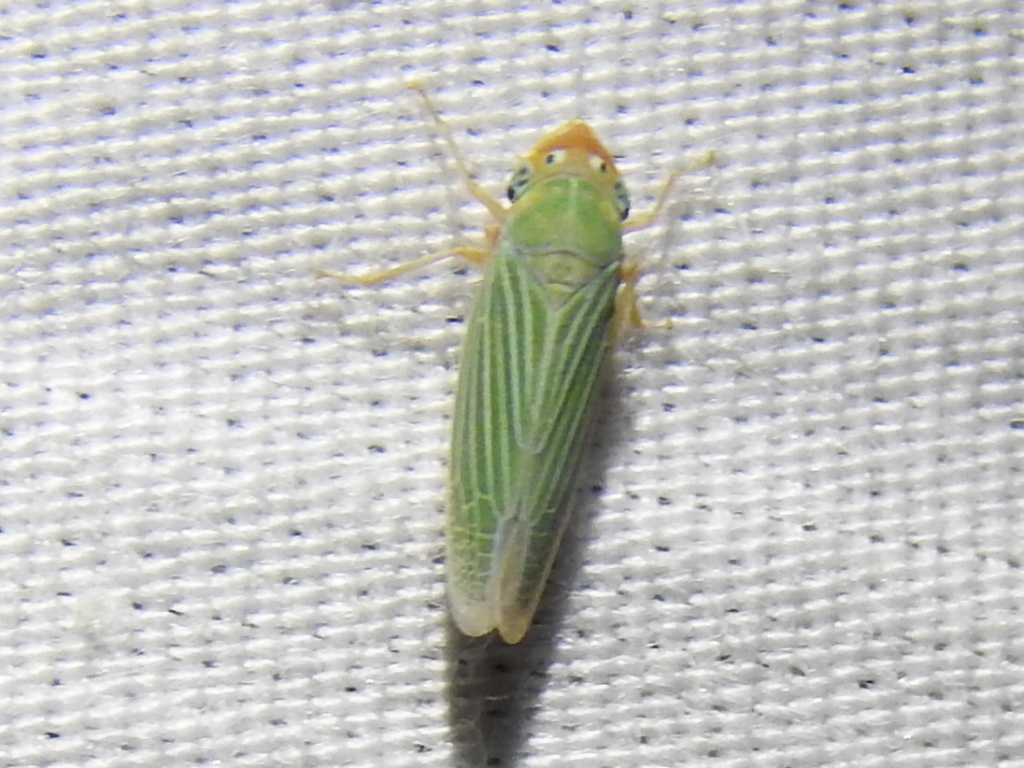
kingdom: Animalia
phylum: Arthropoda
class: Insecta
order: Hemiptera
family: Cicadellidae
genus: Xyphon
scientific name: Xyphon flaviceps
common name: Yellowheaded leafhopper
